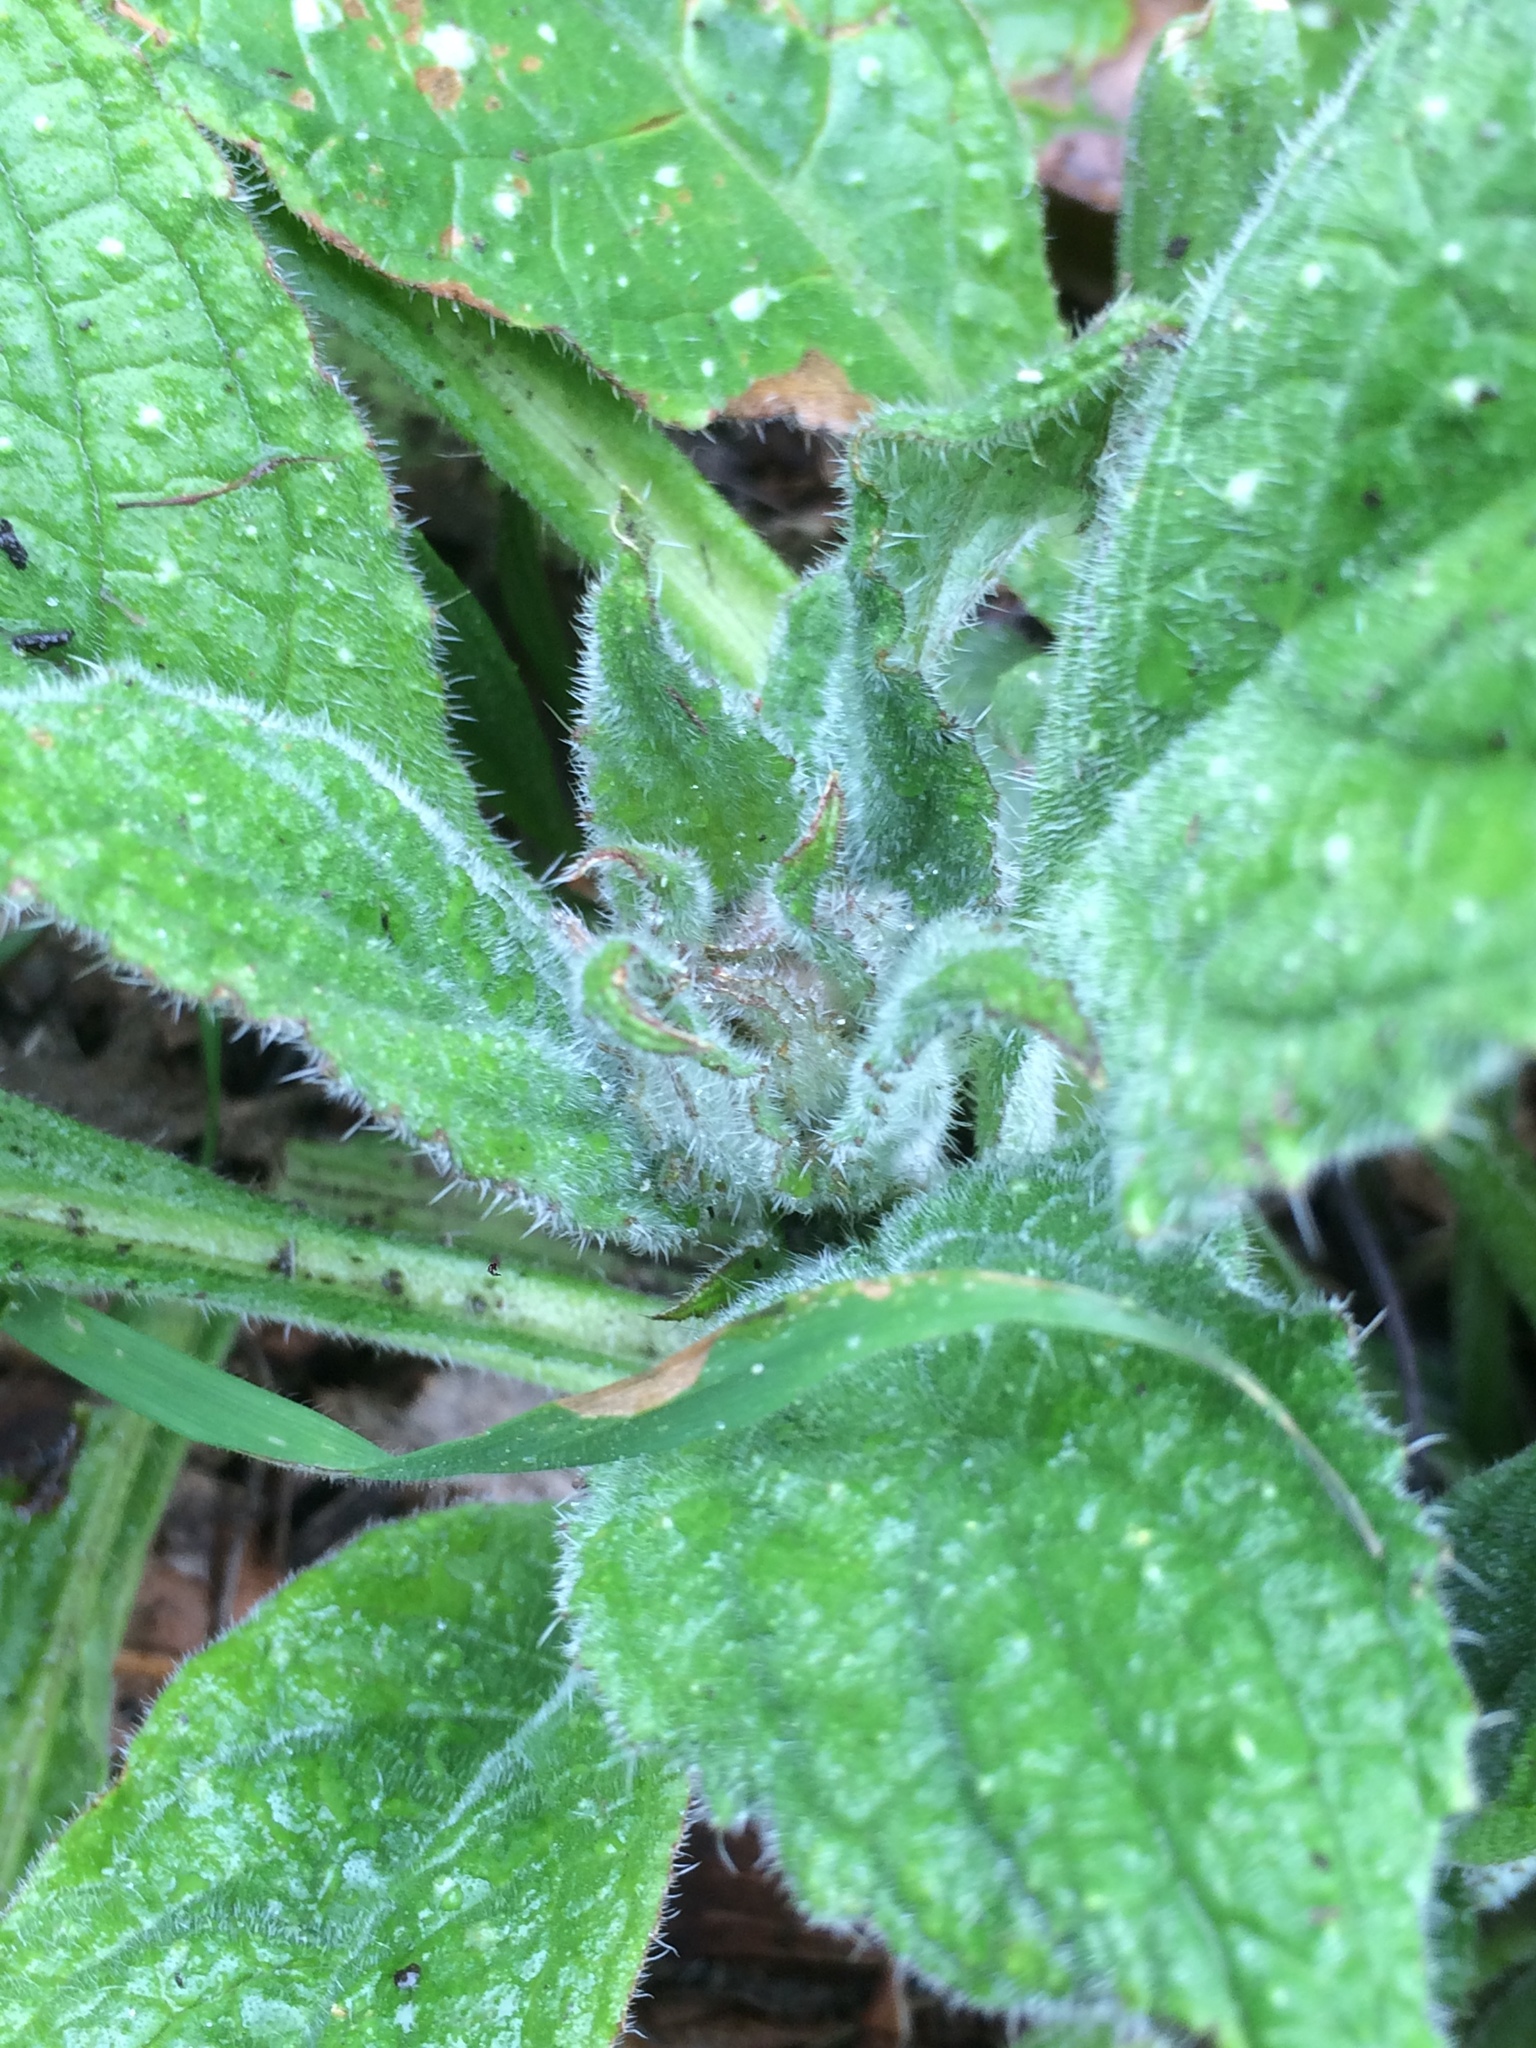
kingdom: Plantae
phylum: Tracheophyta
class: Magnoliopsida
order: Boraginales
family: Boraginaceae
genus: Pentaglottis
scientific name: Pentaglottis sempervirens
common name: Green alkanet
